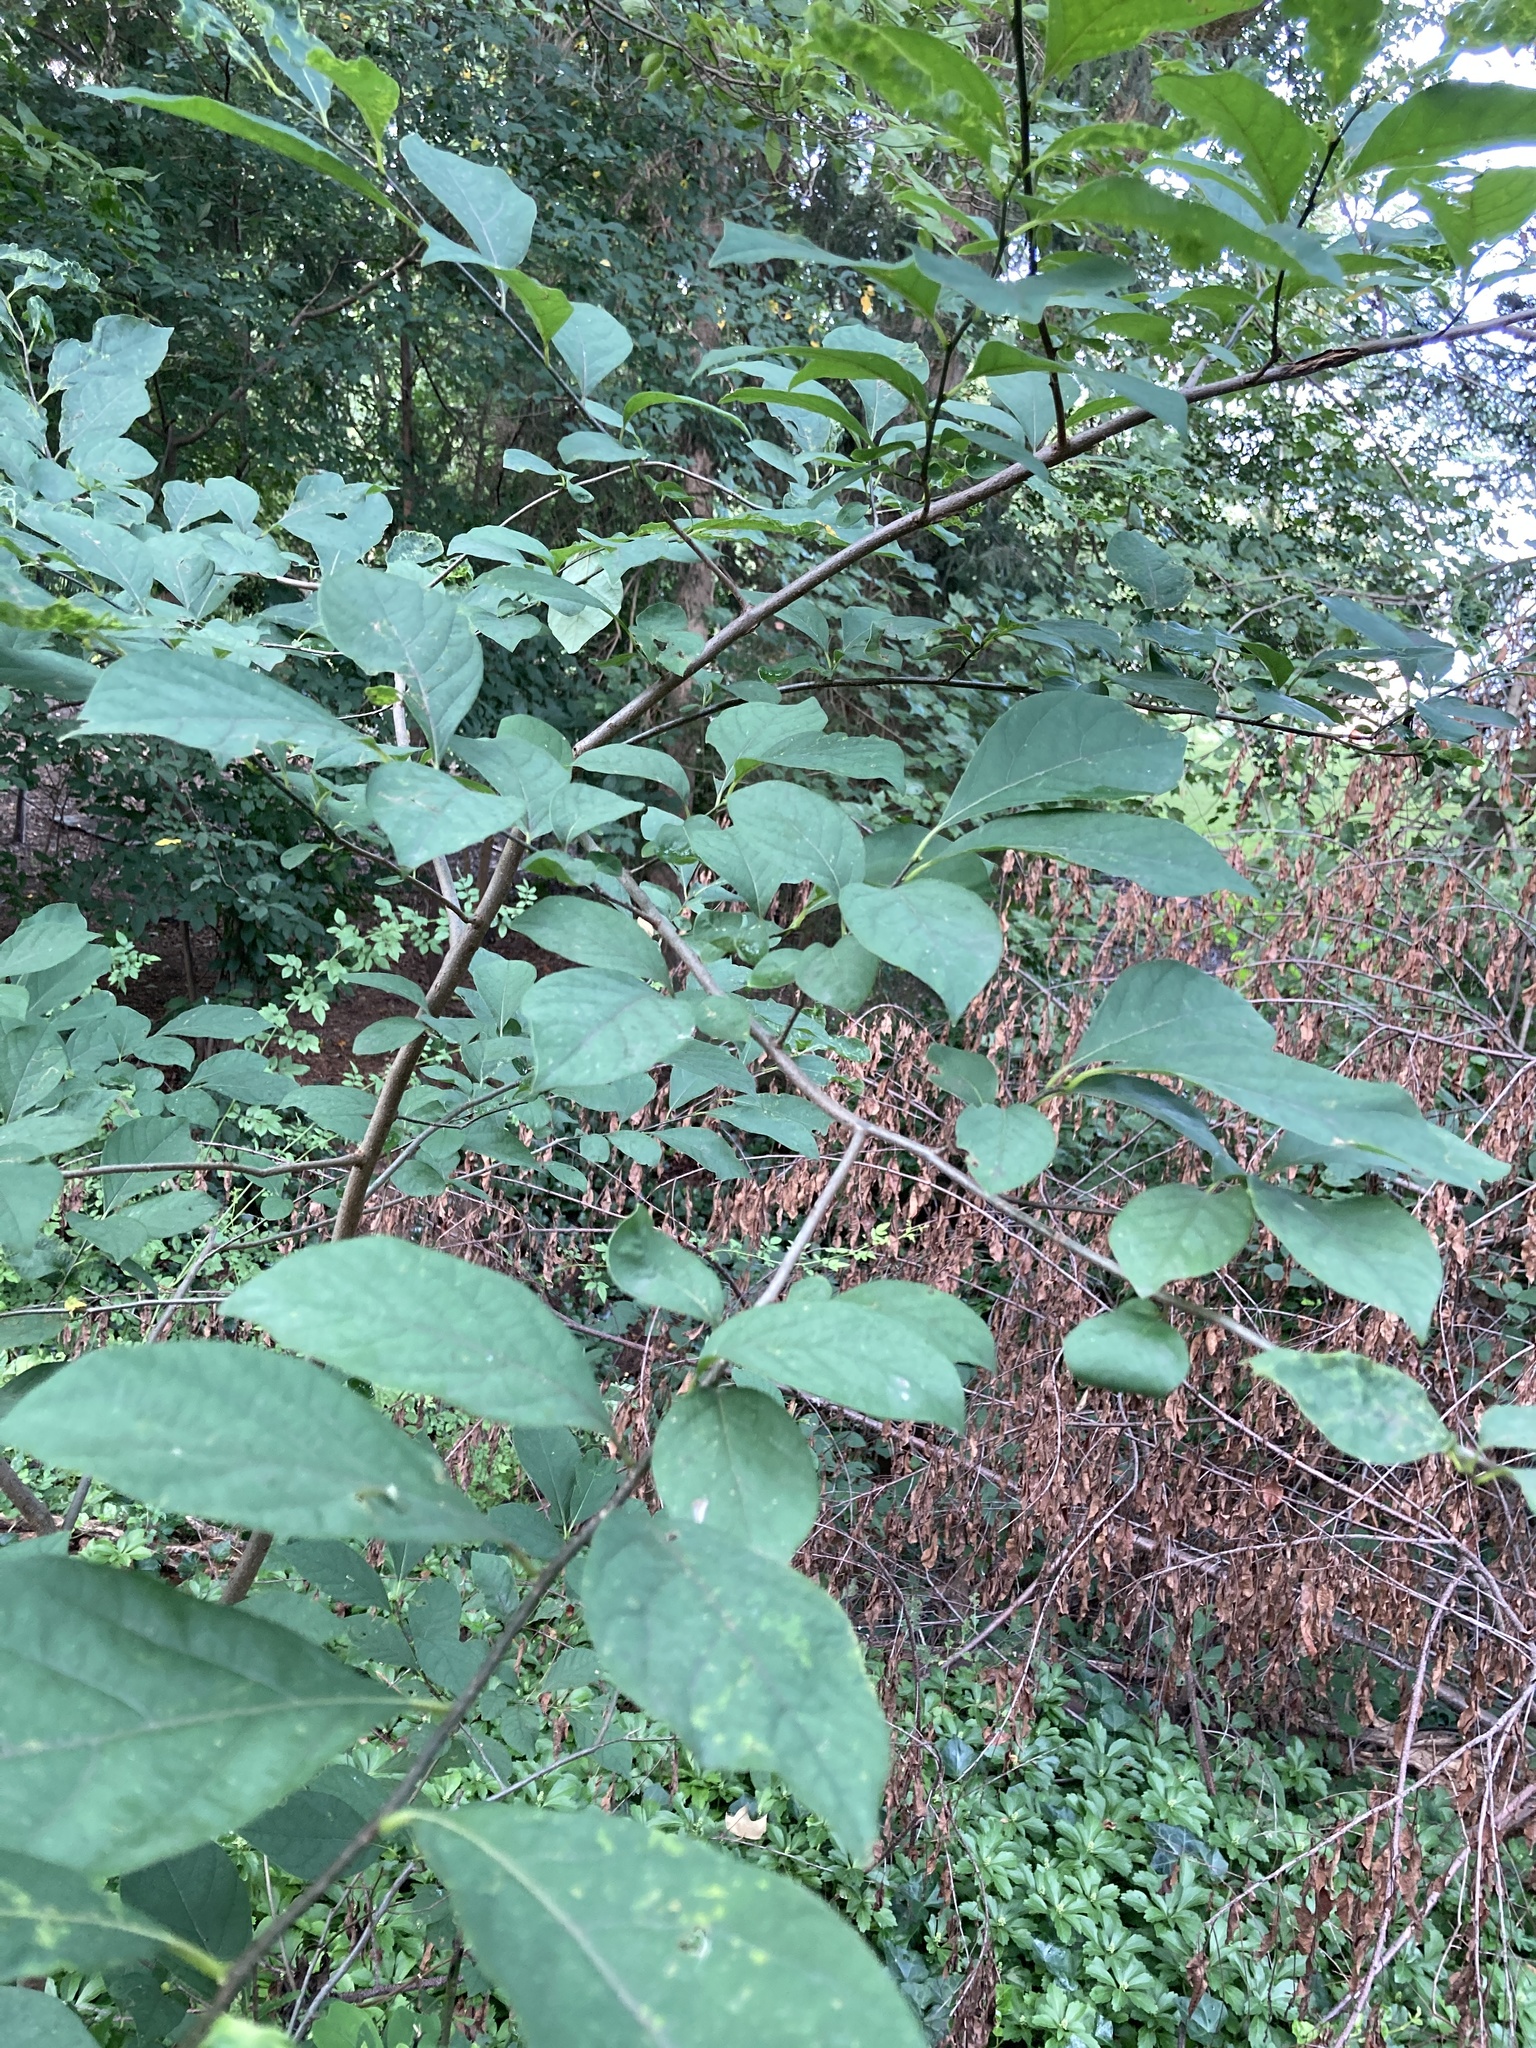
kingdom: Plantae
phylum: Tracheophyta
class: Magnoliopsida
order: Laurales
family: Lauraceae
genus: Lindera
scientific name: Lindera benzoin
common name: Spicebush
